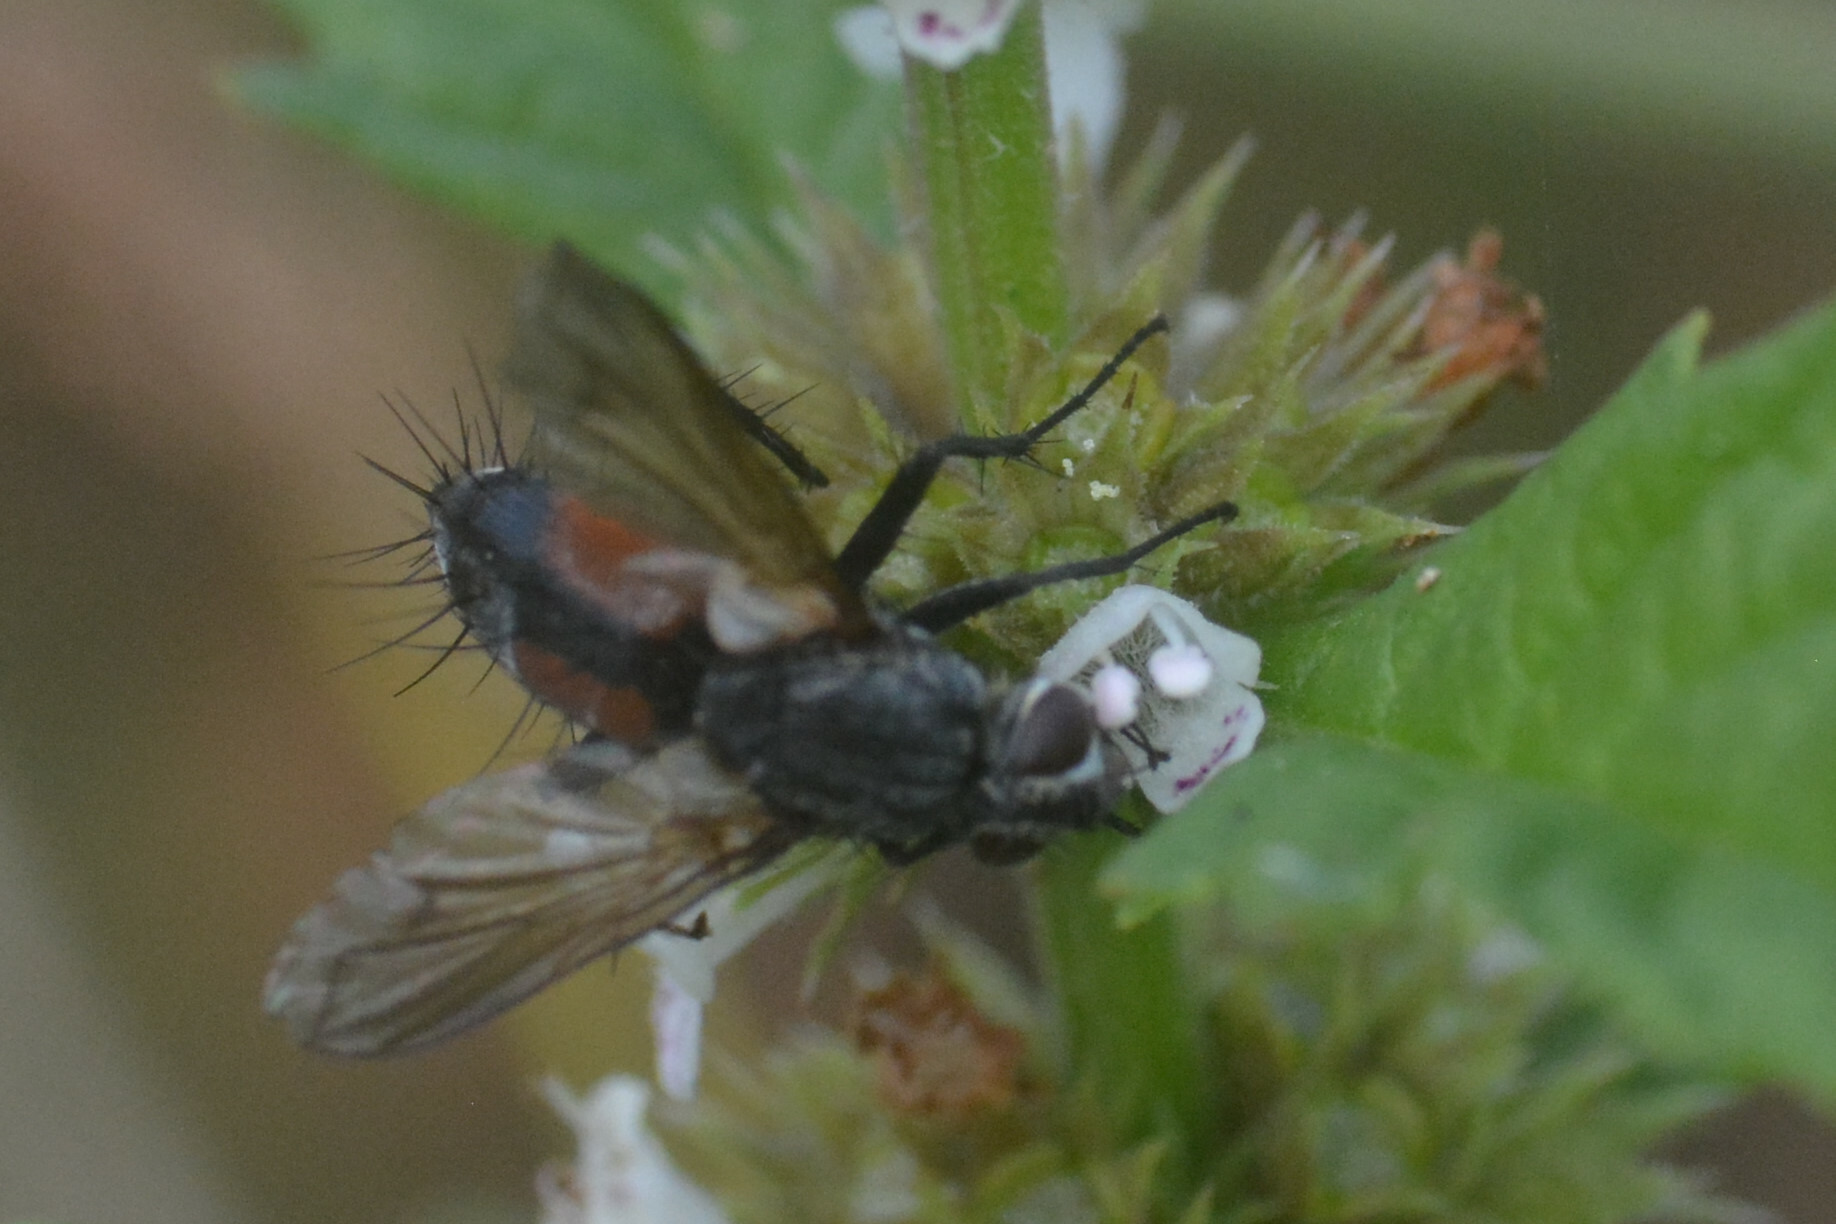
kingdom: Animalia
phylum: Arthropoda
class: Insecta
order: Diptera
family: Tachinidae
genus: Eriothrix
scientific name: Eriothrix rufomaculatus
